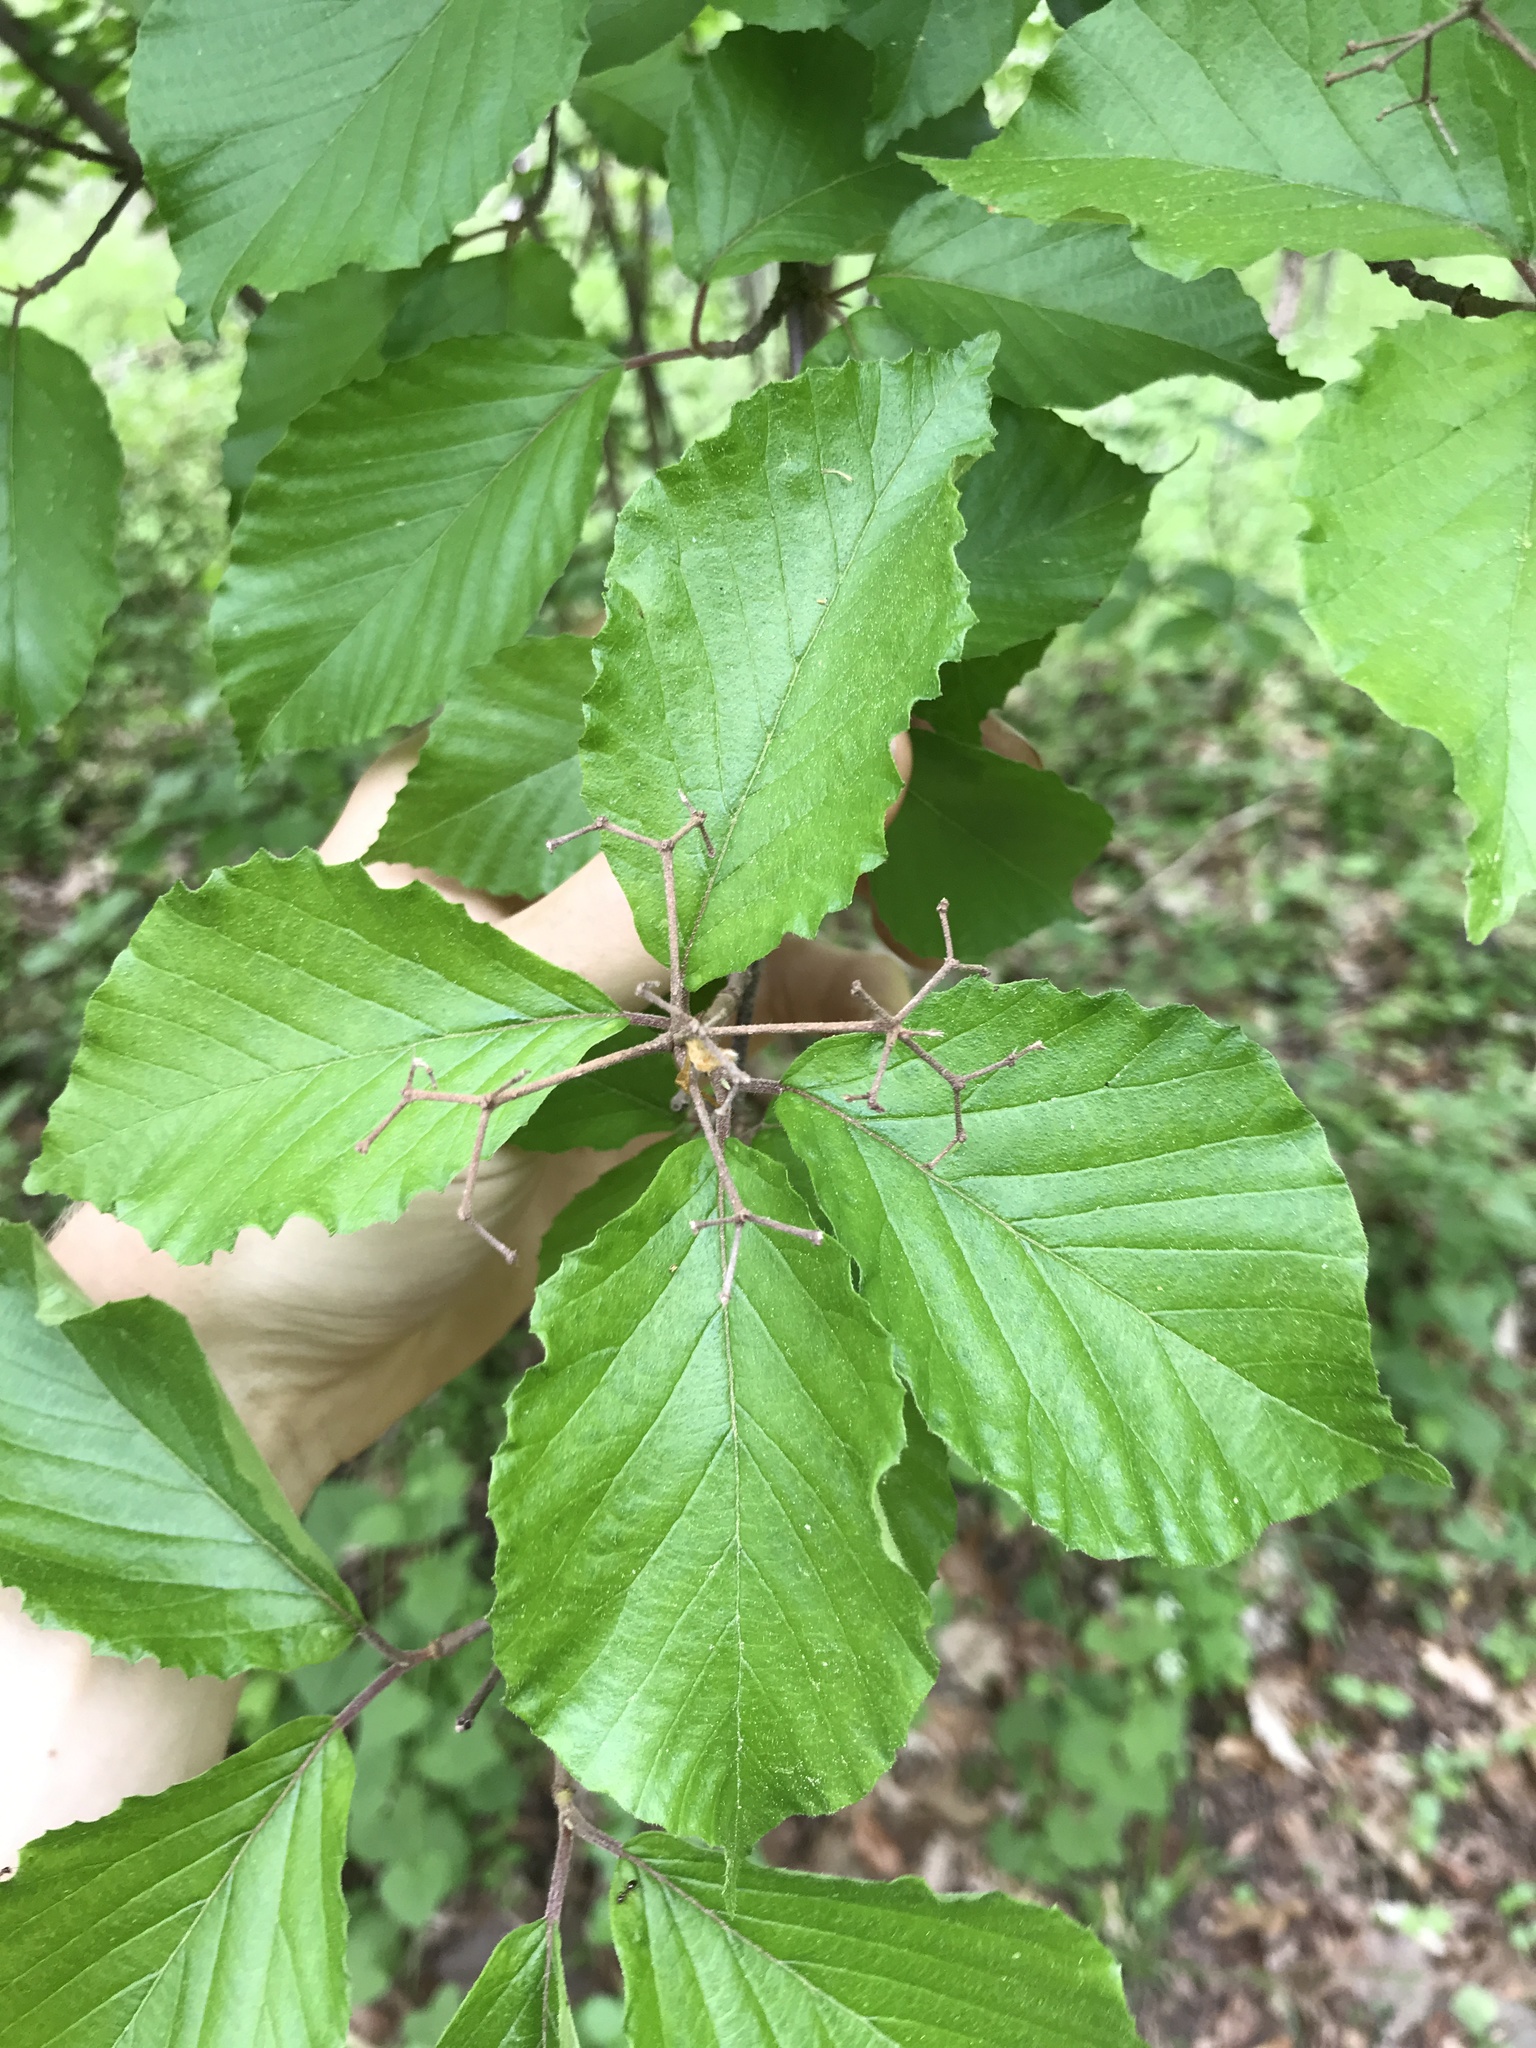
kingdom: Plantae
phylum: Tracheophyta
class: Magnoliopsida
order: Dipsacales
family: Viburnaceae
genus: Viburnum
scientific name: Viburnum dilatatum
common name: Linden arrowwood
